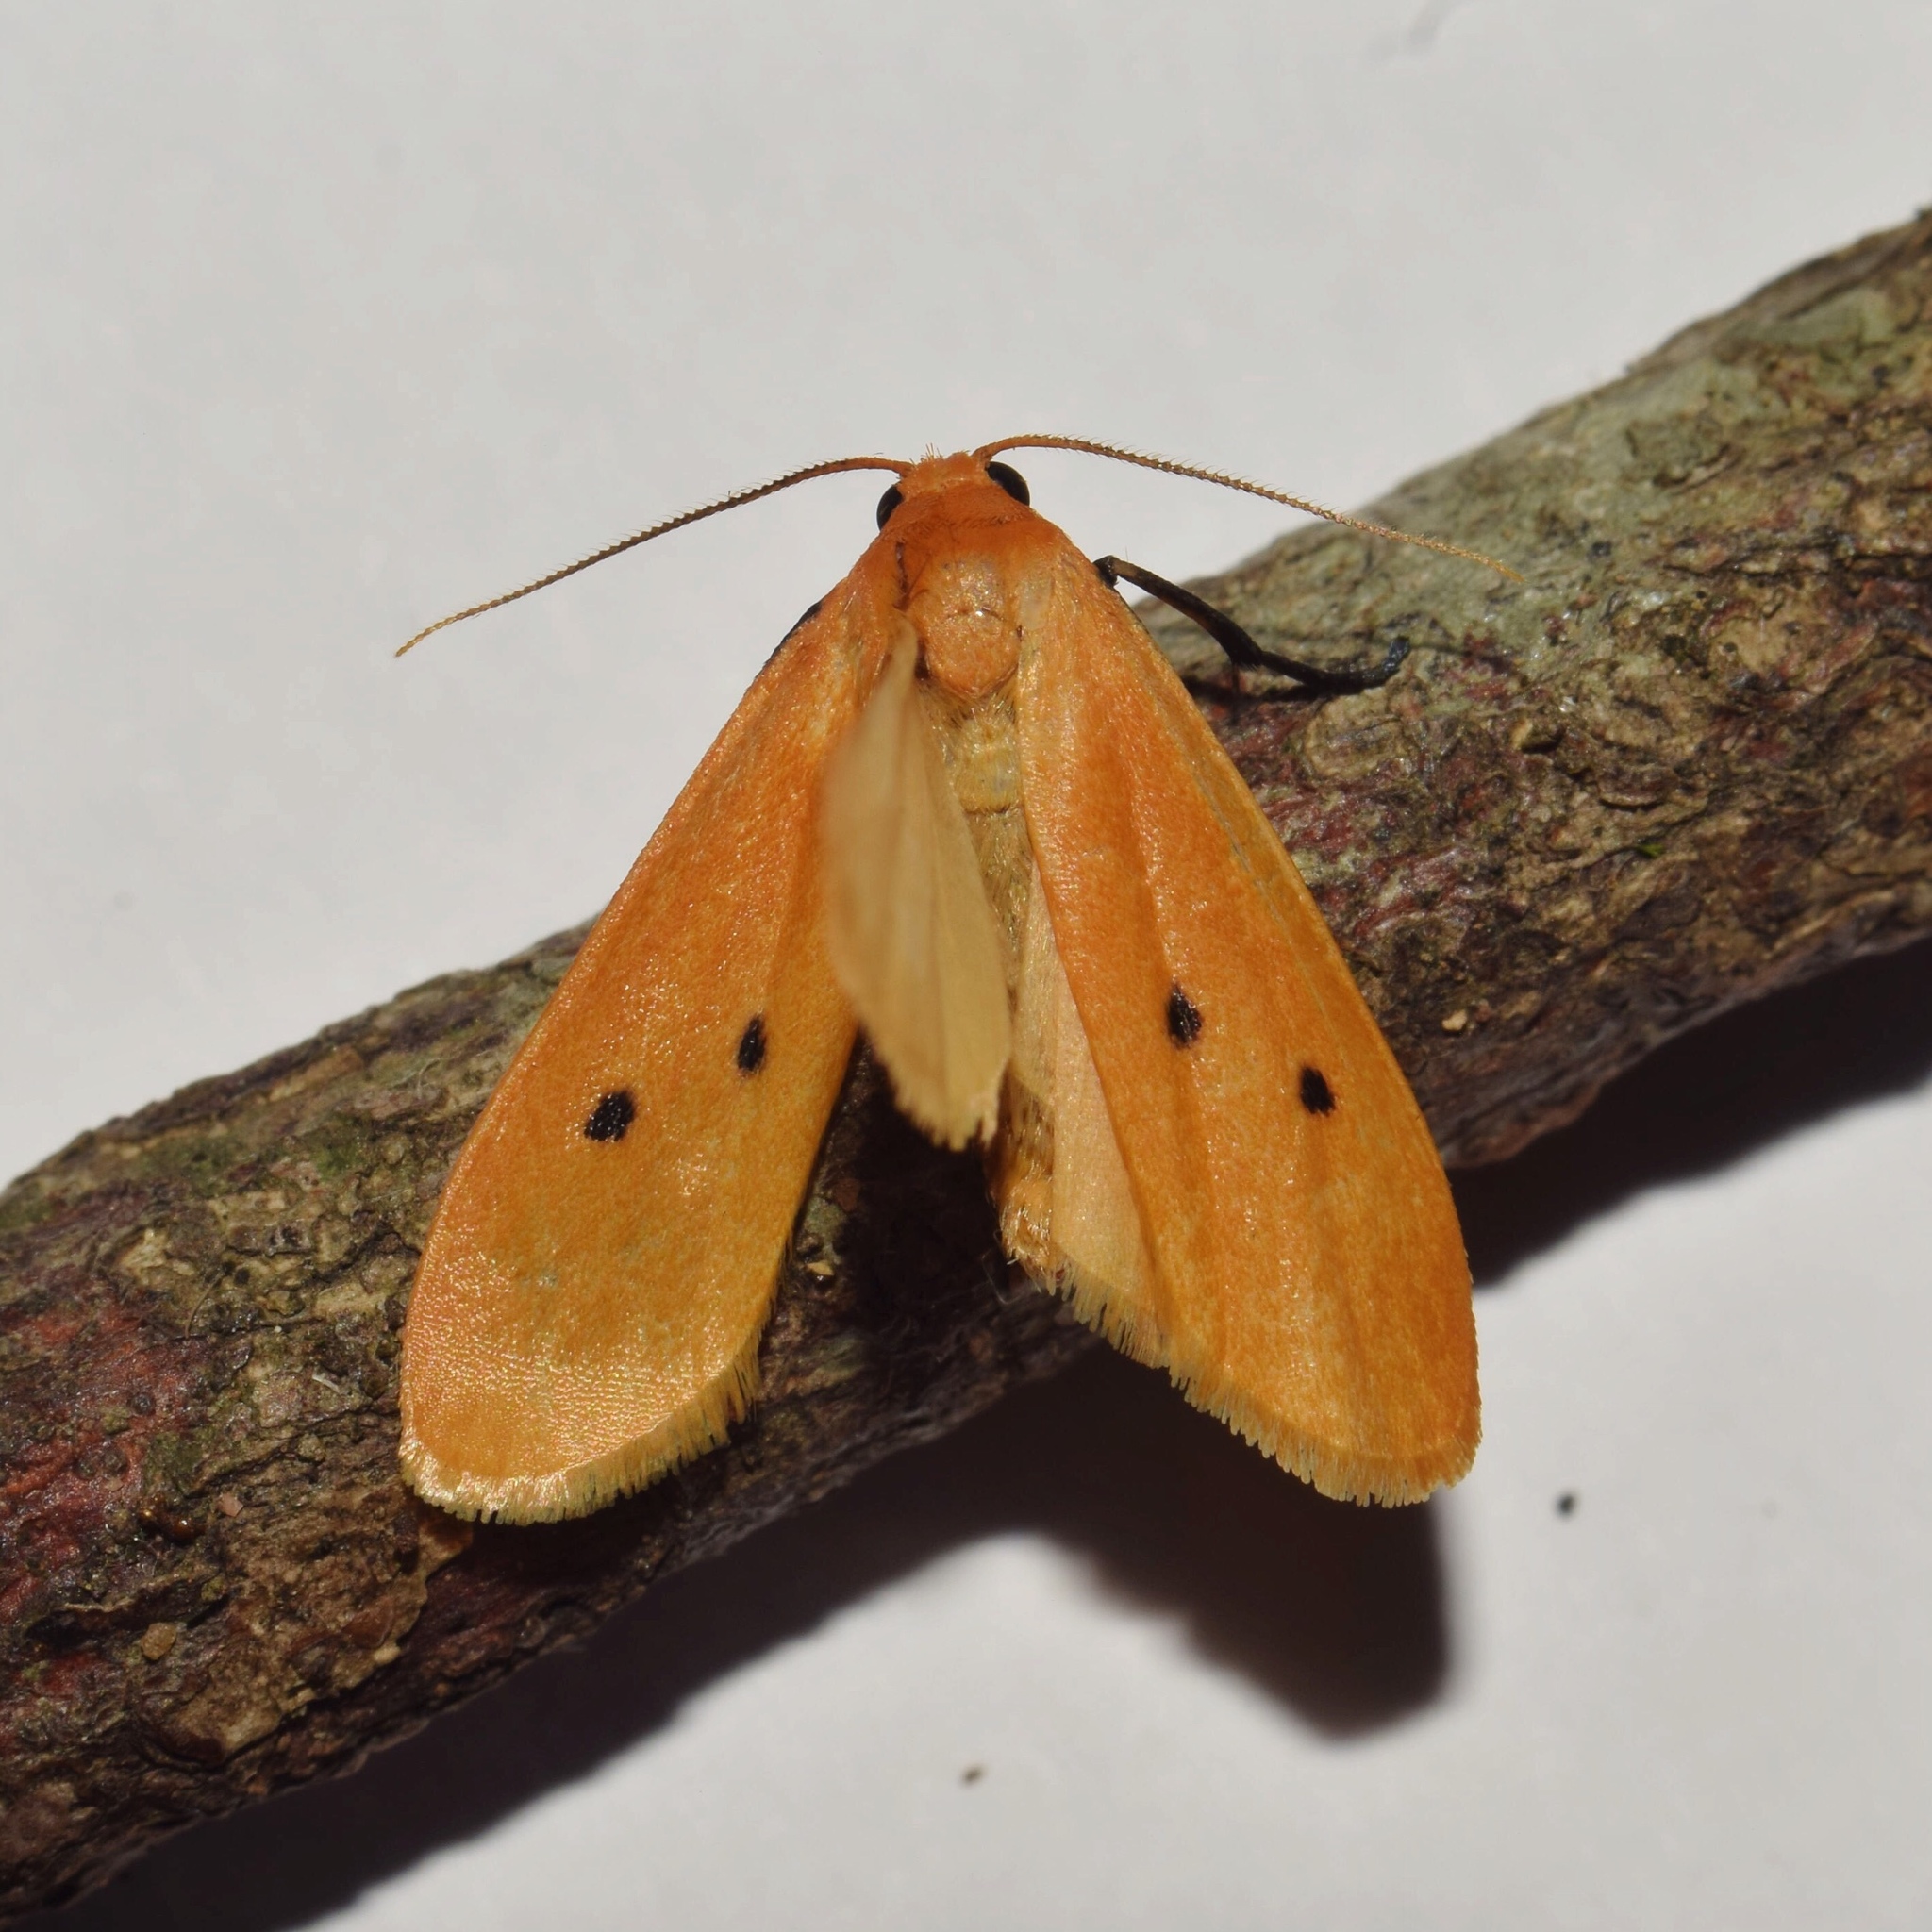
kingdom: Animalia
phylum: Arthropoda
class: Insecta
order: Lepidoptera
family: Erebidae
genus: Pseudocragia
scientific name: Pseudocragia quadrinotata
